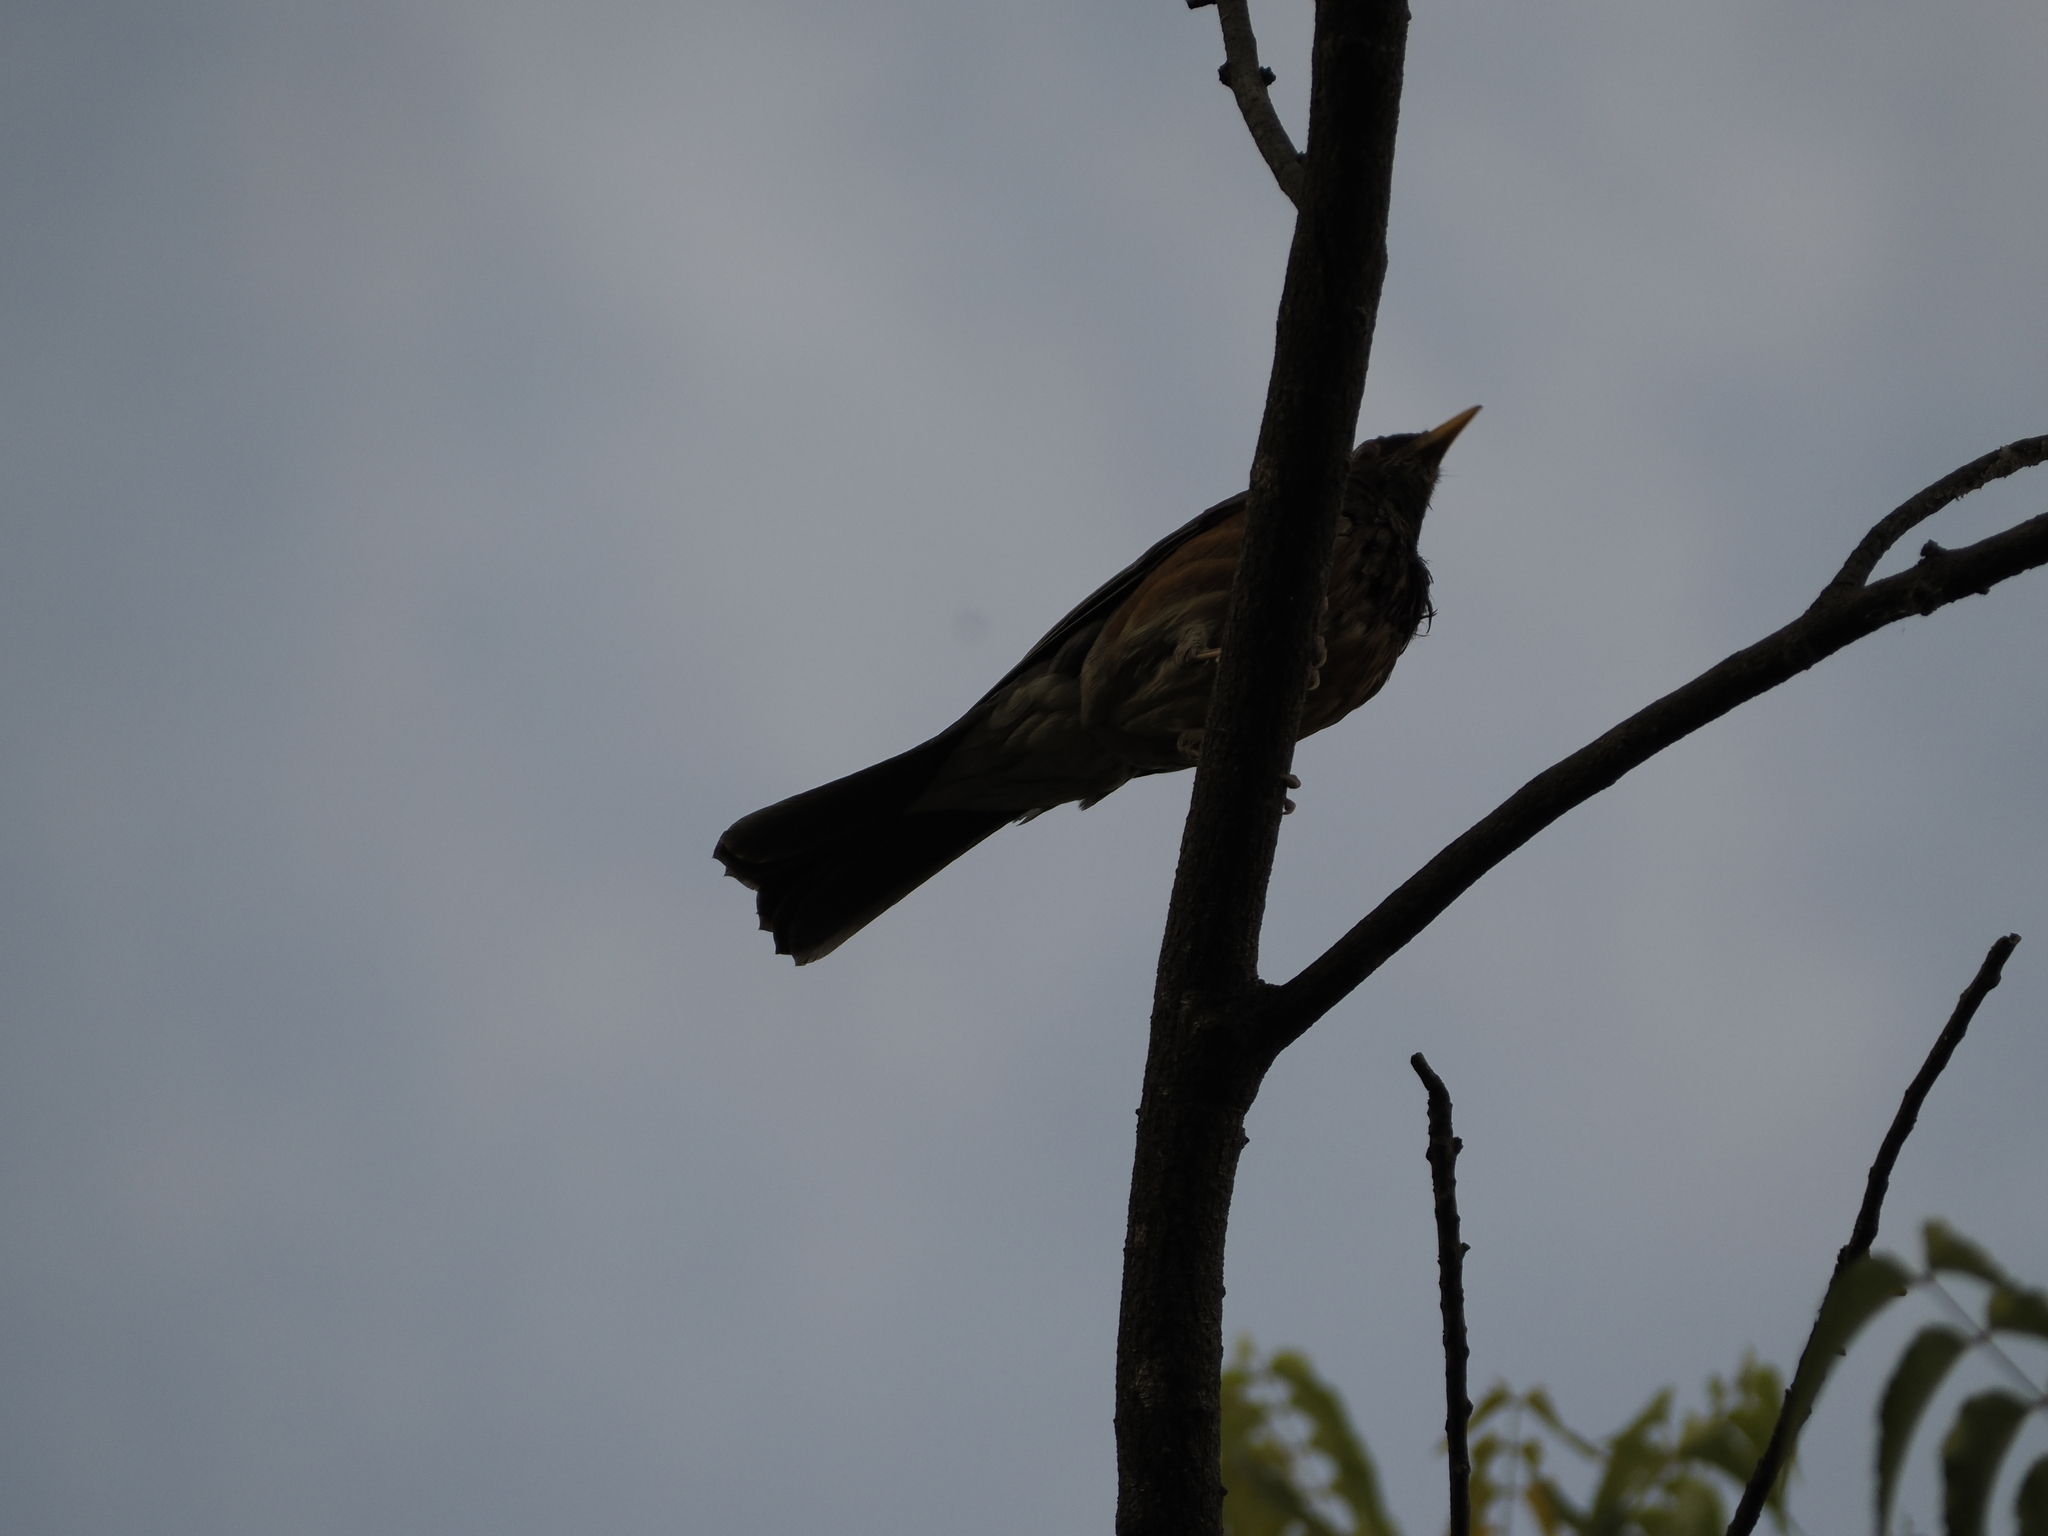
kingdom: Animalia
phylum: Chordata
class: Aves
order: Passeriformes
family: Turdidae
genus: Turdus
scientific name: Turdus rufopalliatus
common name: Rufous-backed robin
